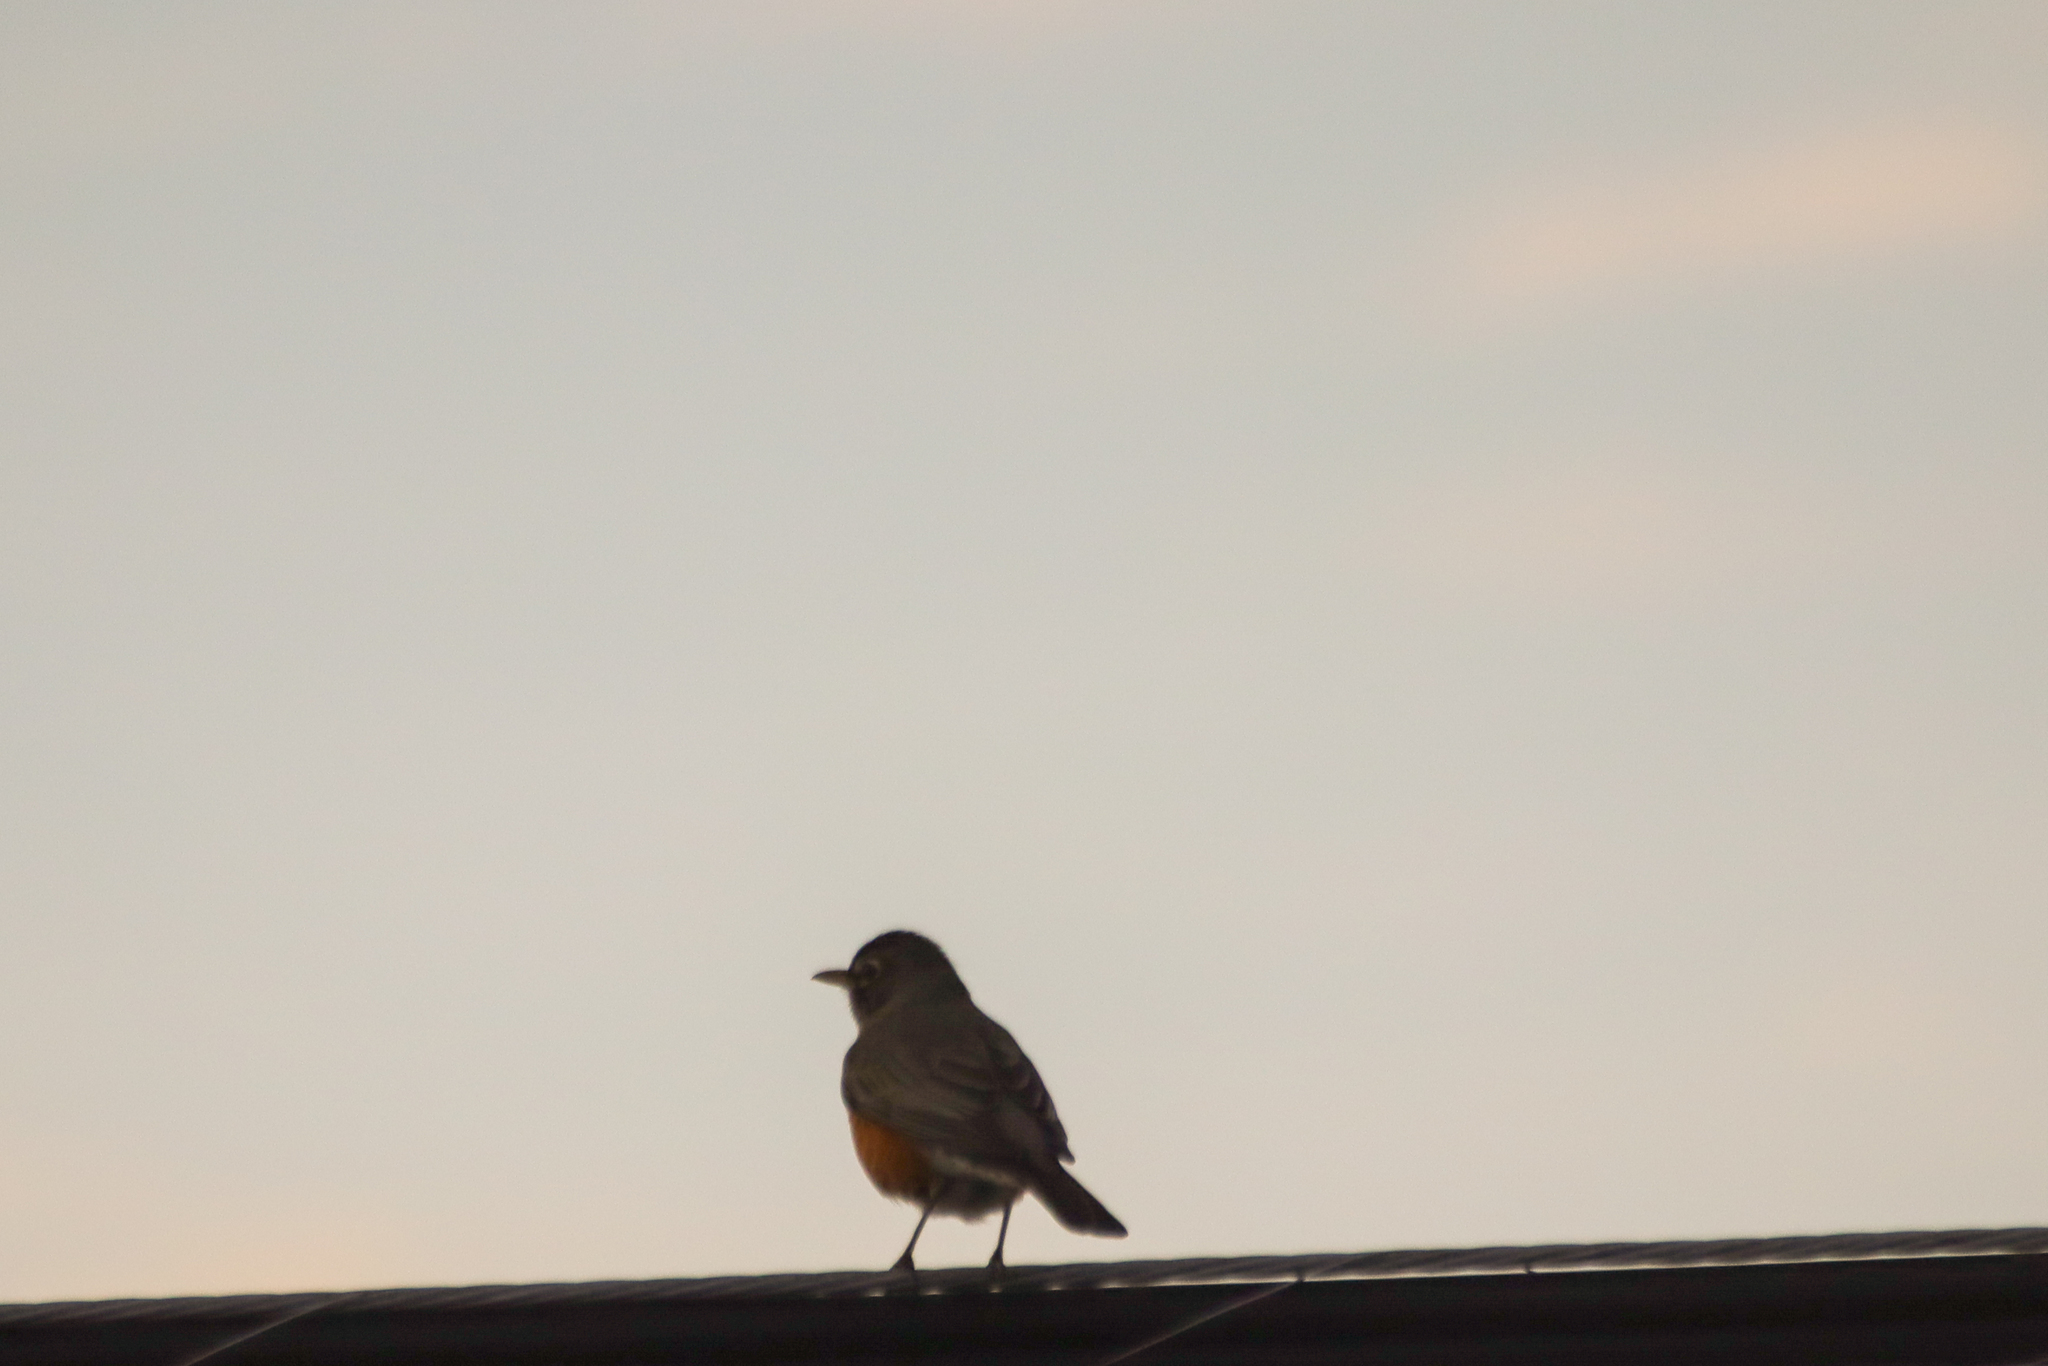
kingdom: Animalia
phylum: Chordata
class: Aves
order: Passeriformes
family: Turdidae
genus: Turdus
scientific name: Turdus migratorius
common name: American robin
